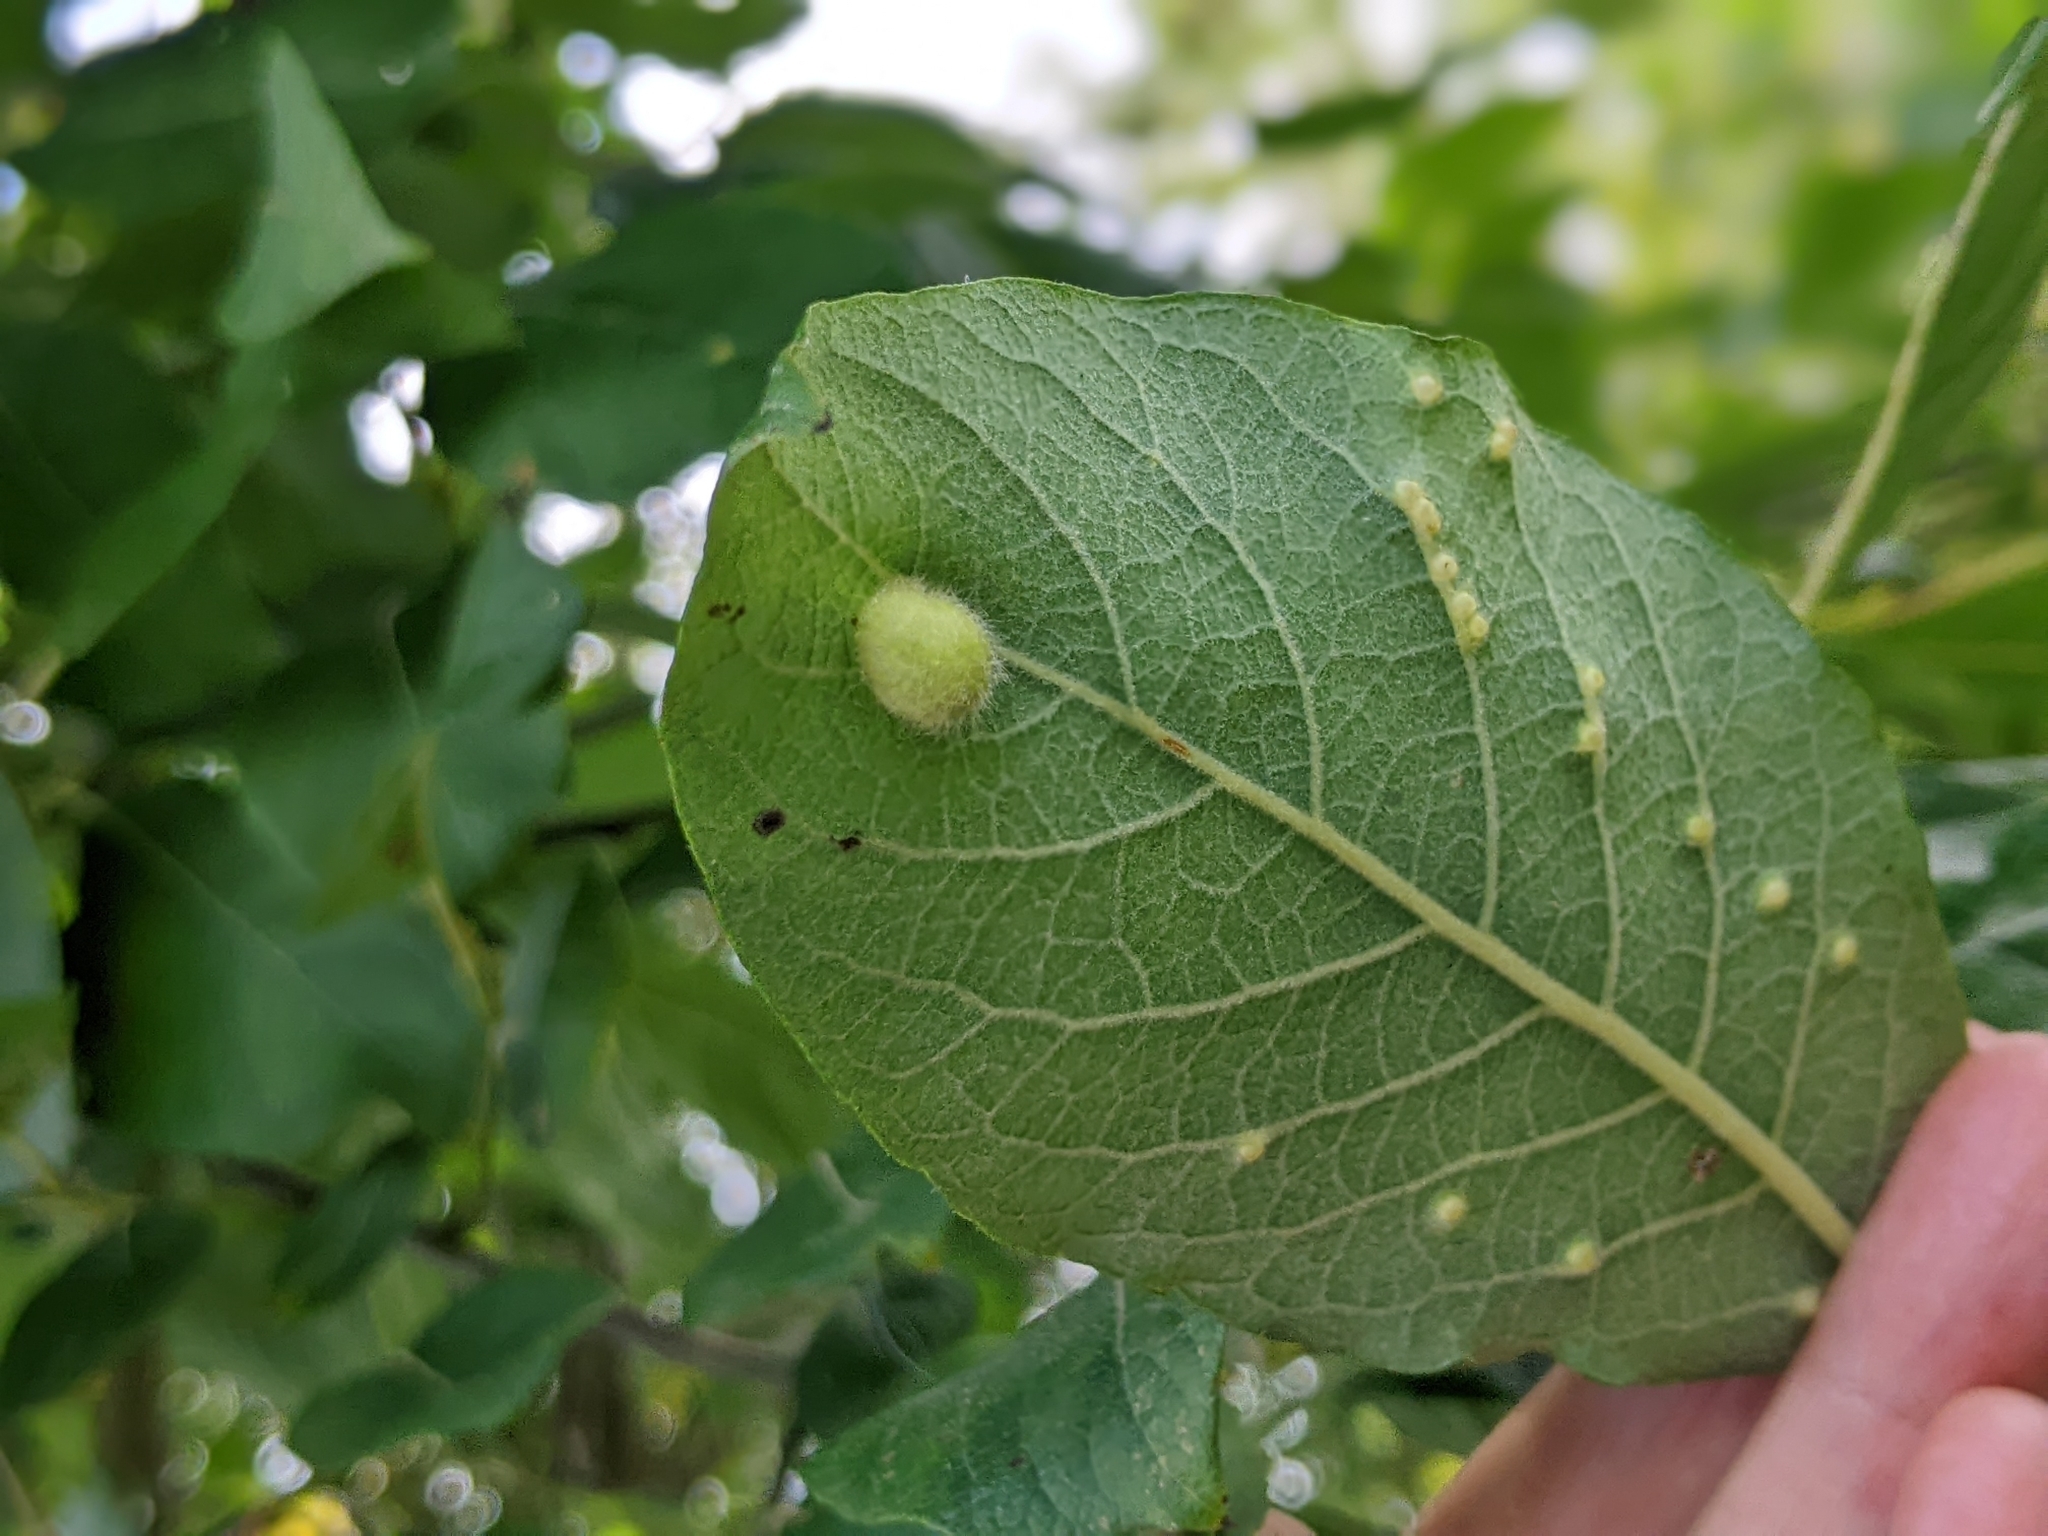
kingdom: Animalia
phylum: Arthropoda
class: Insecta
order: Hymenoptera
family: Tenthredinidae
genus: Pontania
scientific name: Pontania pedunculi
